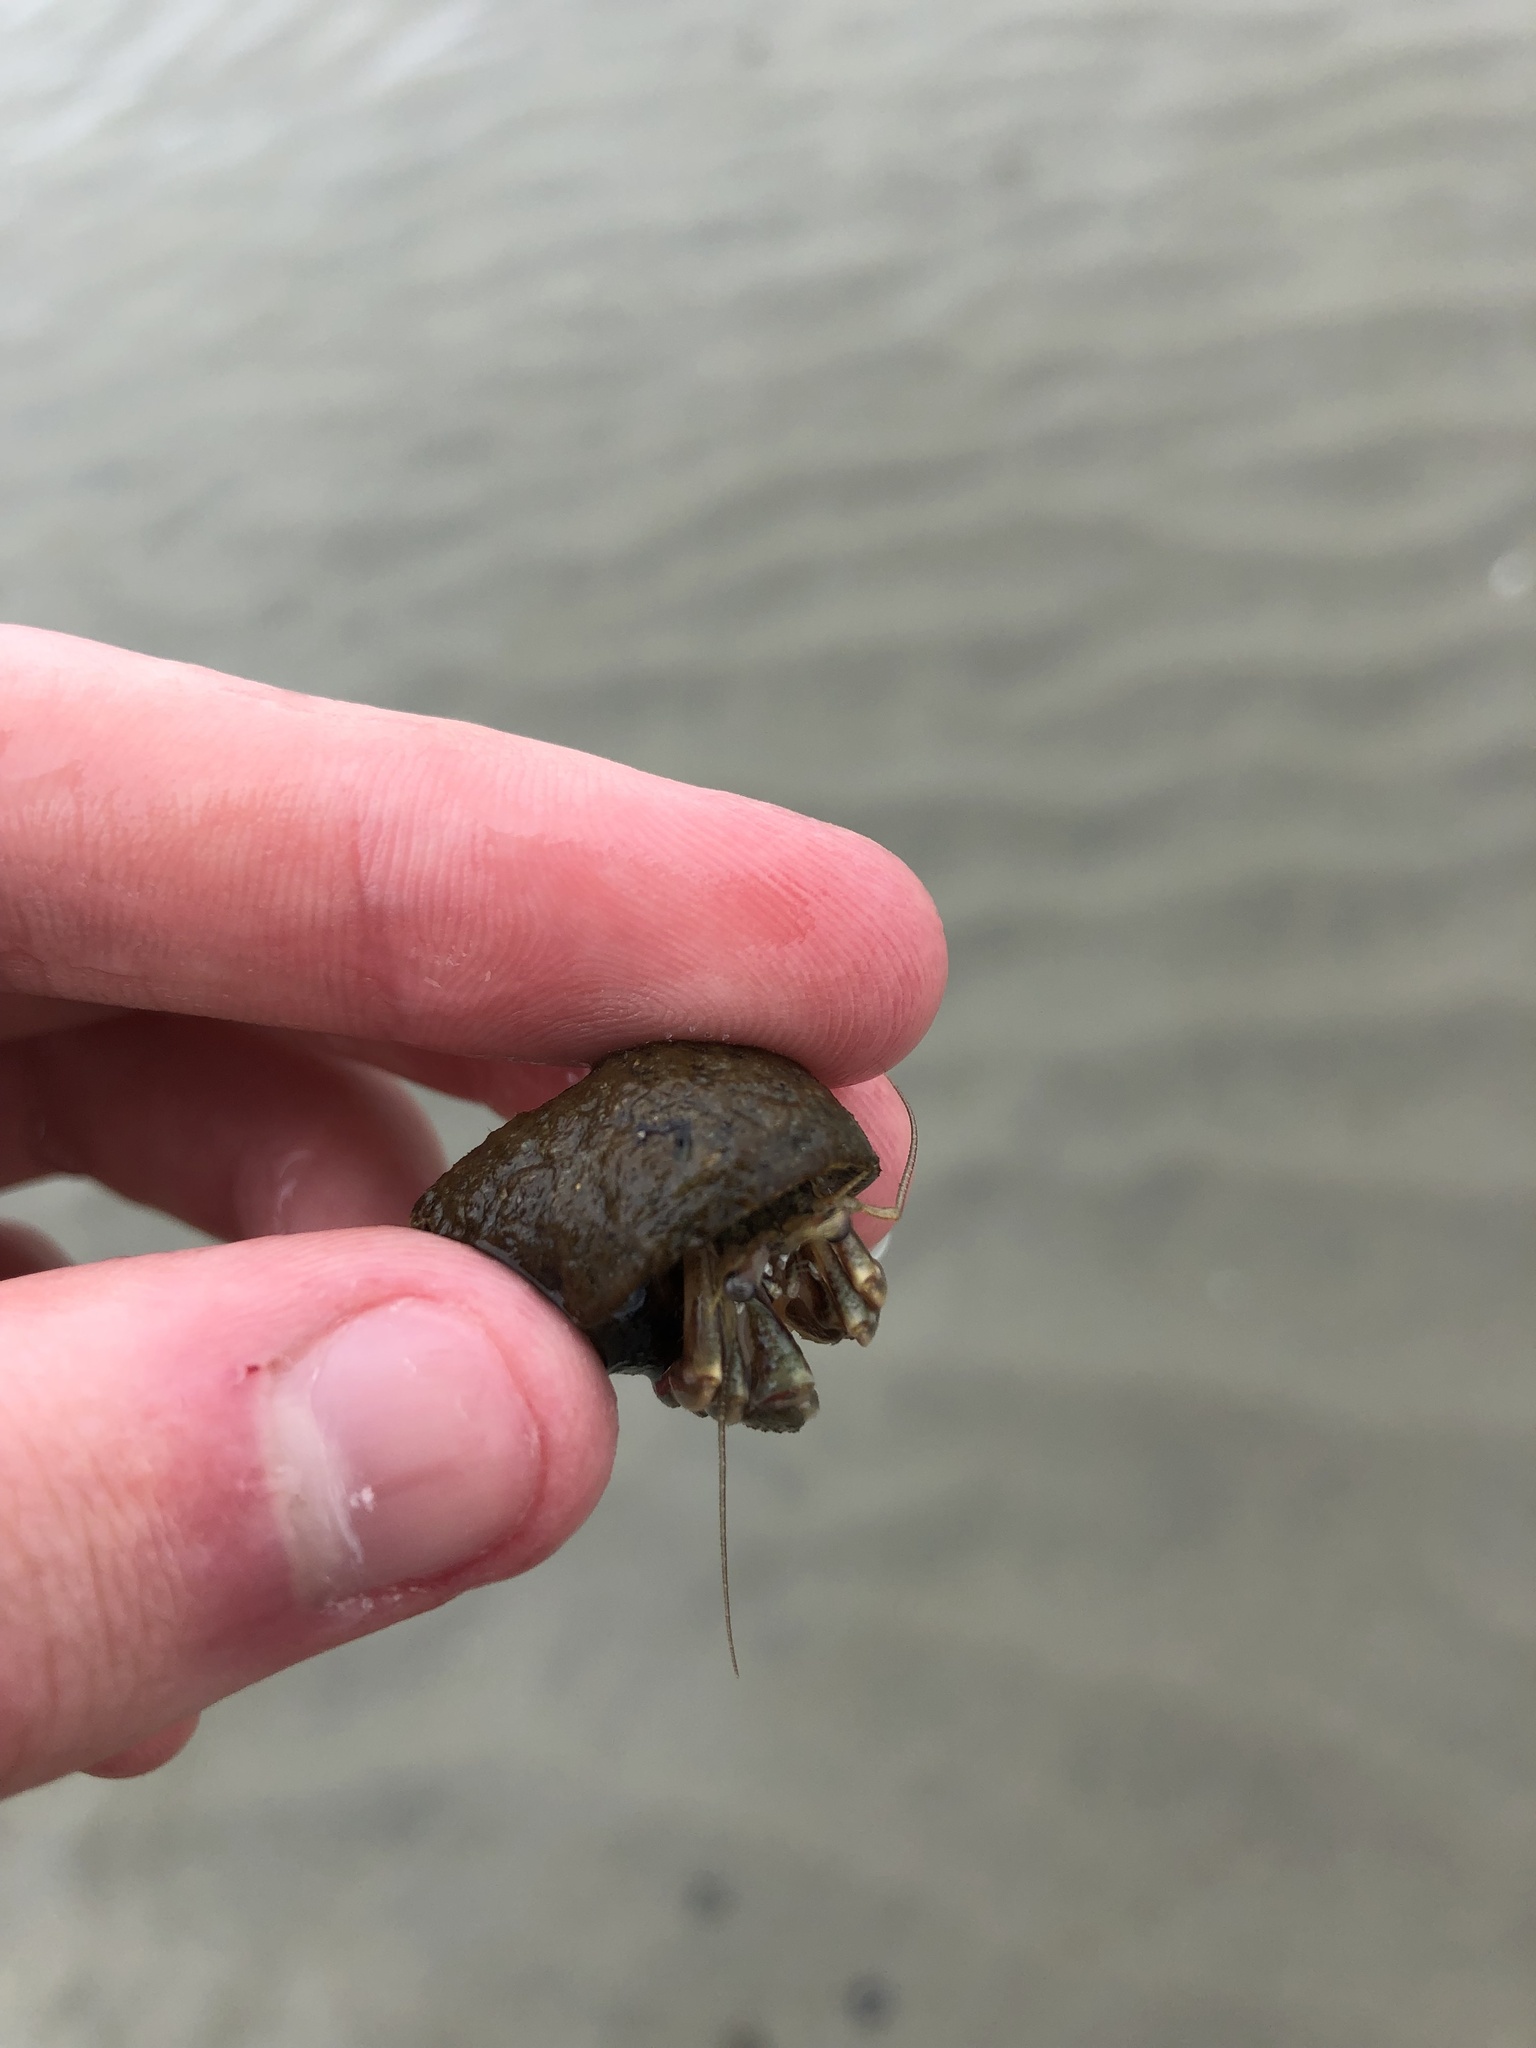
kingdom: Animalia
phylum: Arthropoda
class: Malacostraca
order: Decapoda
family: Paguridae
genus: Pagurus
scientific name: Pagurus longicarpus
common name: Long-armed hermit crab
